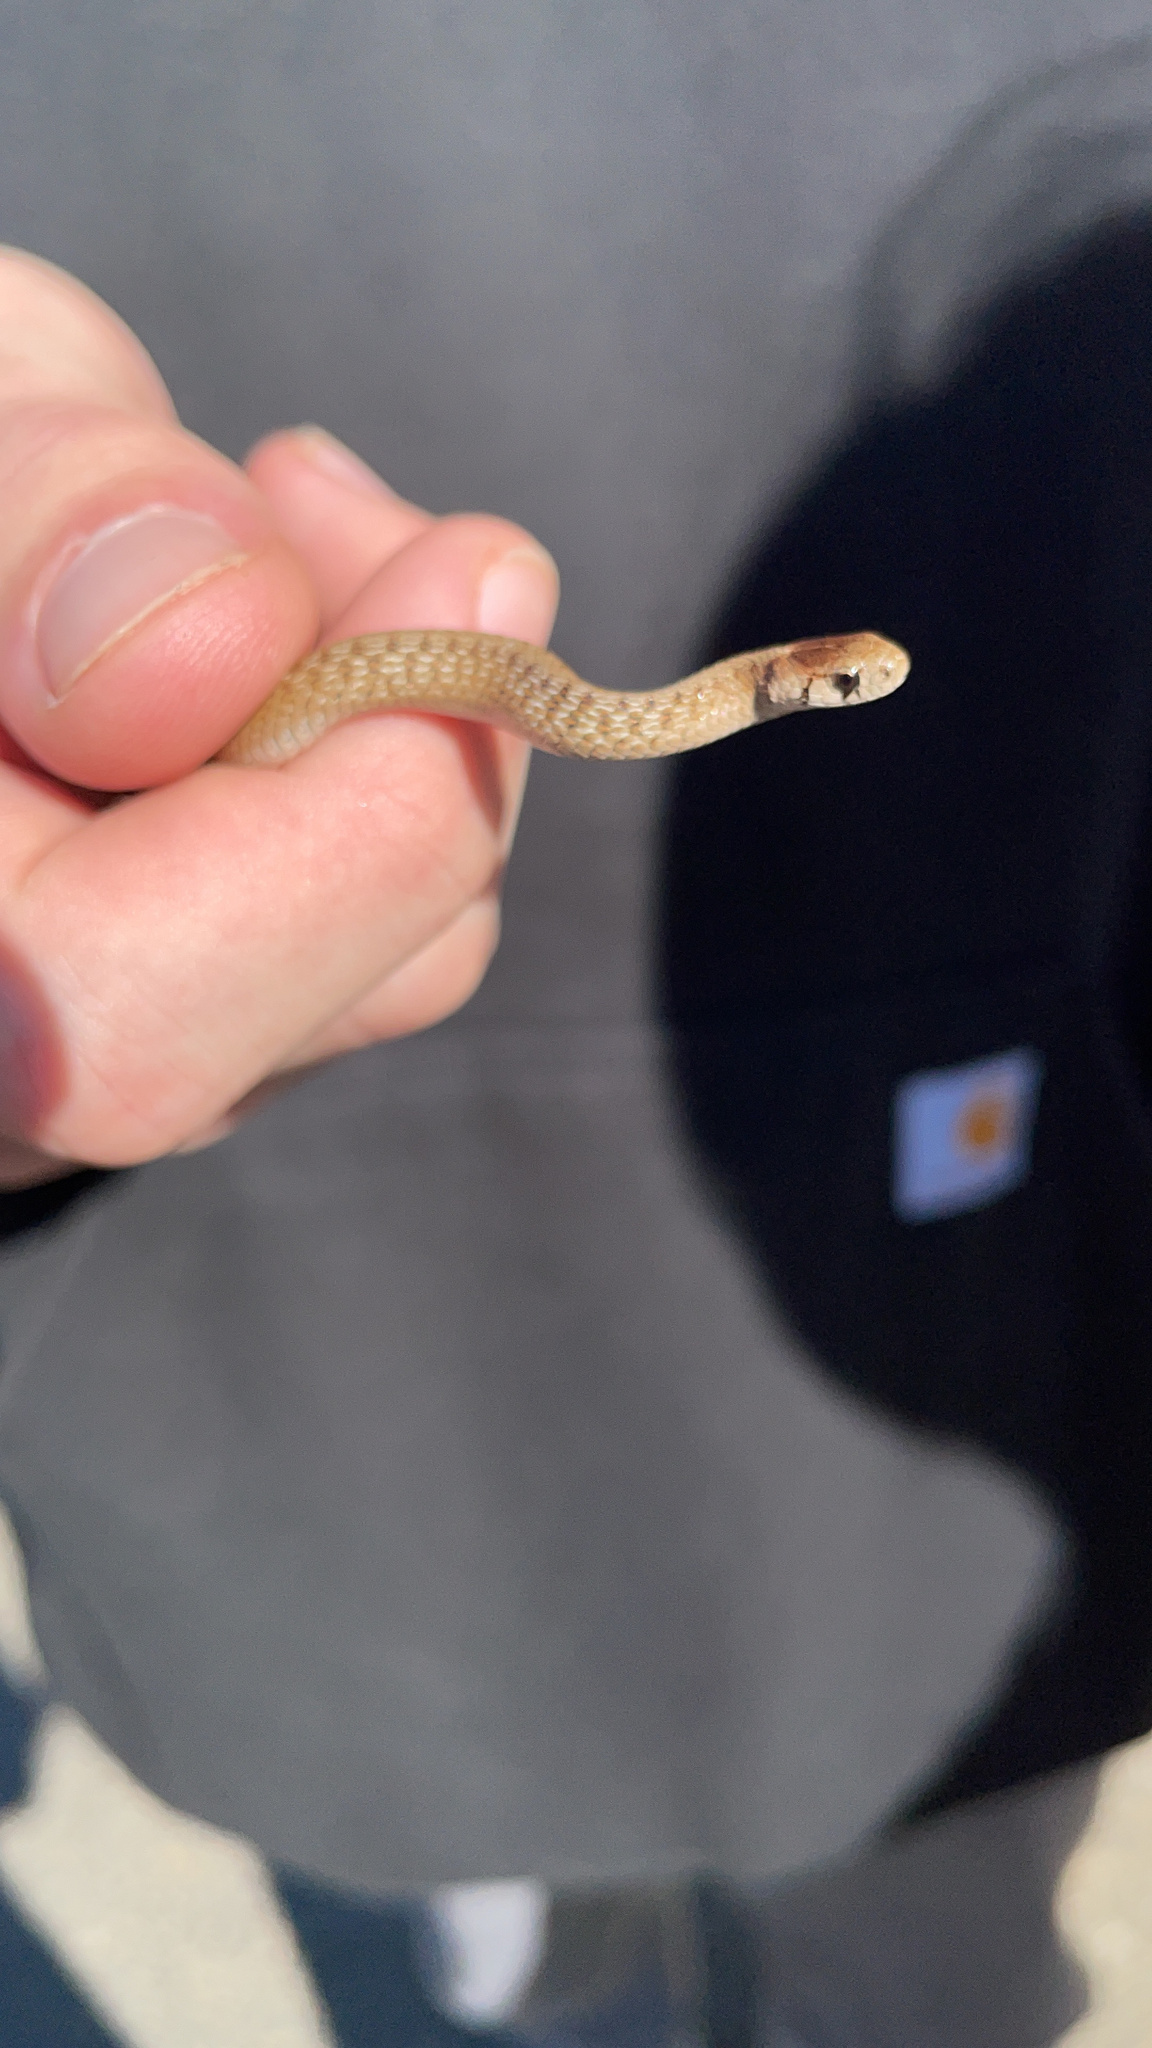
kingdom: Animalia
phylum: Chordata
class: Squamata
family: Colubridae
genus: Storeria
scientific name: Storeria dekayi
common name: (dekay’s) brown snake
